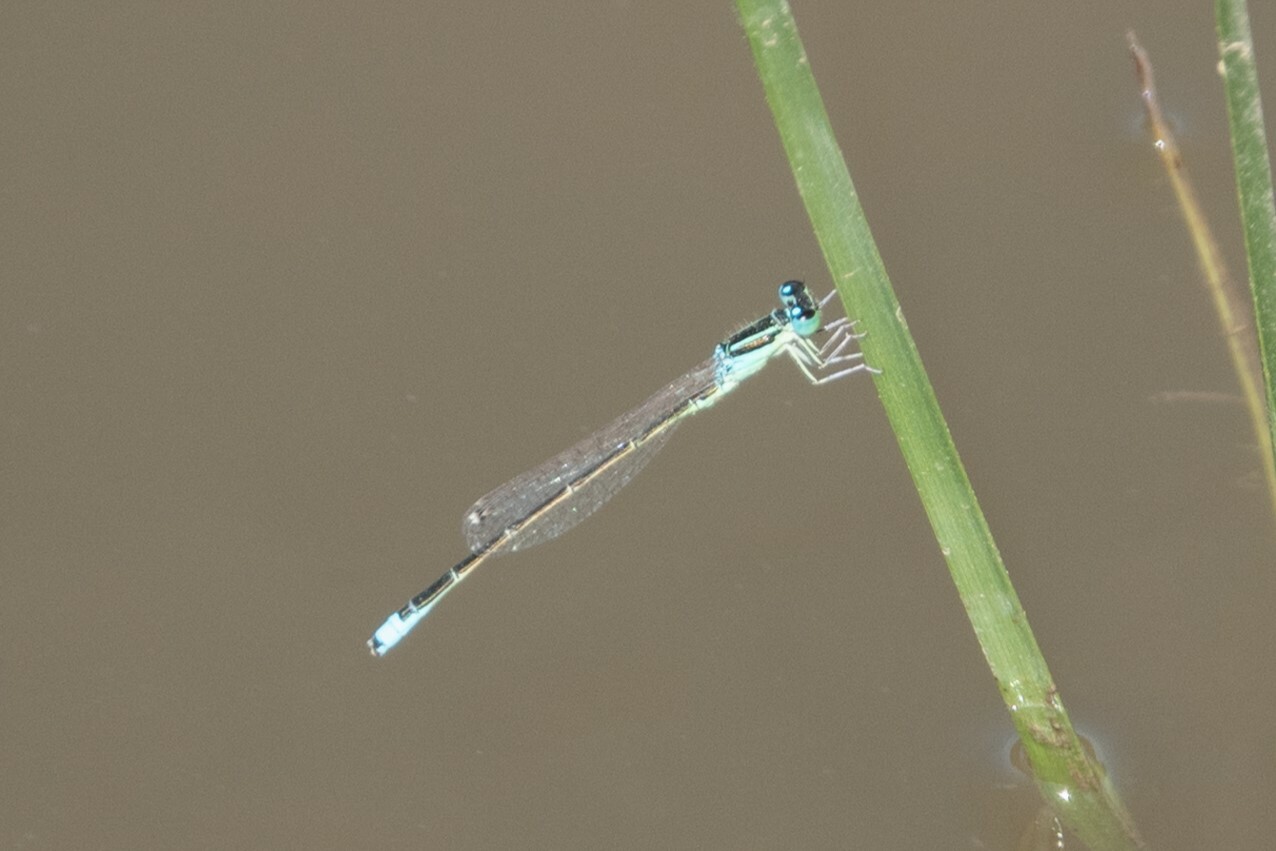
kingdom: Animalia
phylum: Arthropoda
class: Insecta
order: Odonata
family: Coenagrionidae
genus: Ischnura
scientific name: Ischnura pumilio
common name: Scarce blue-tailed damselfly
